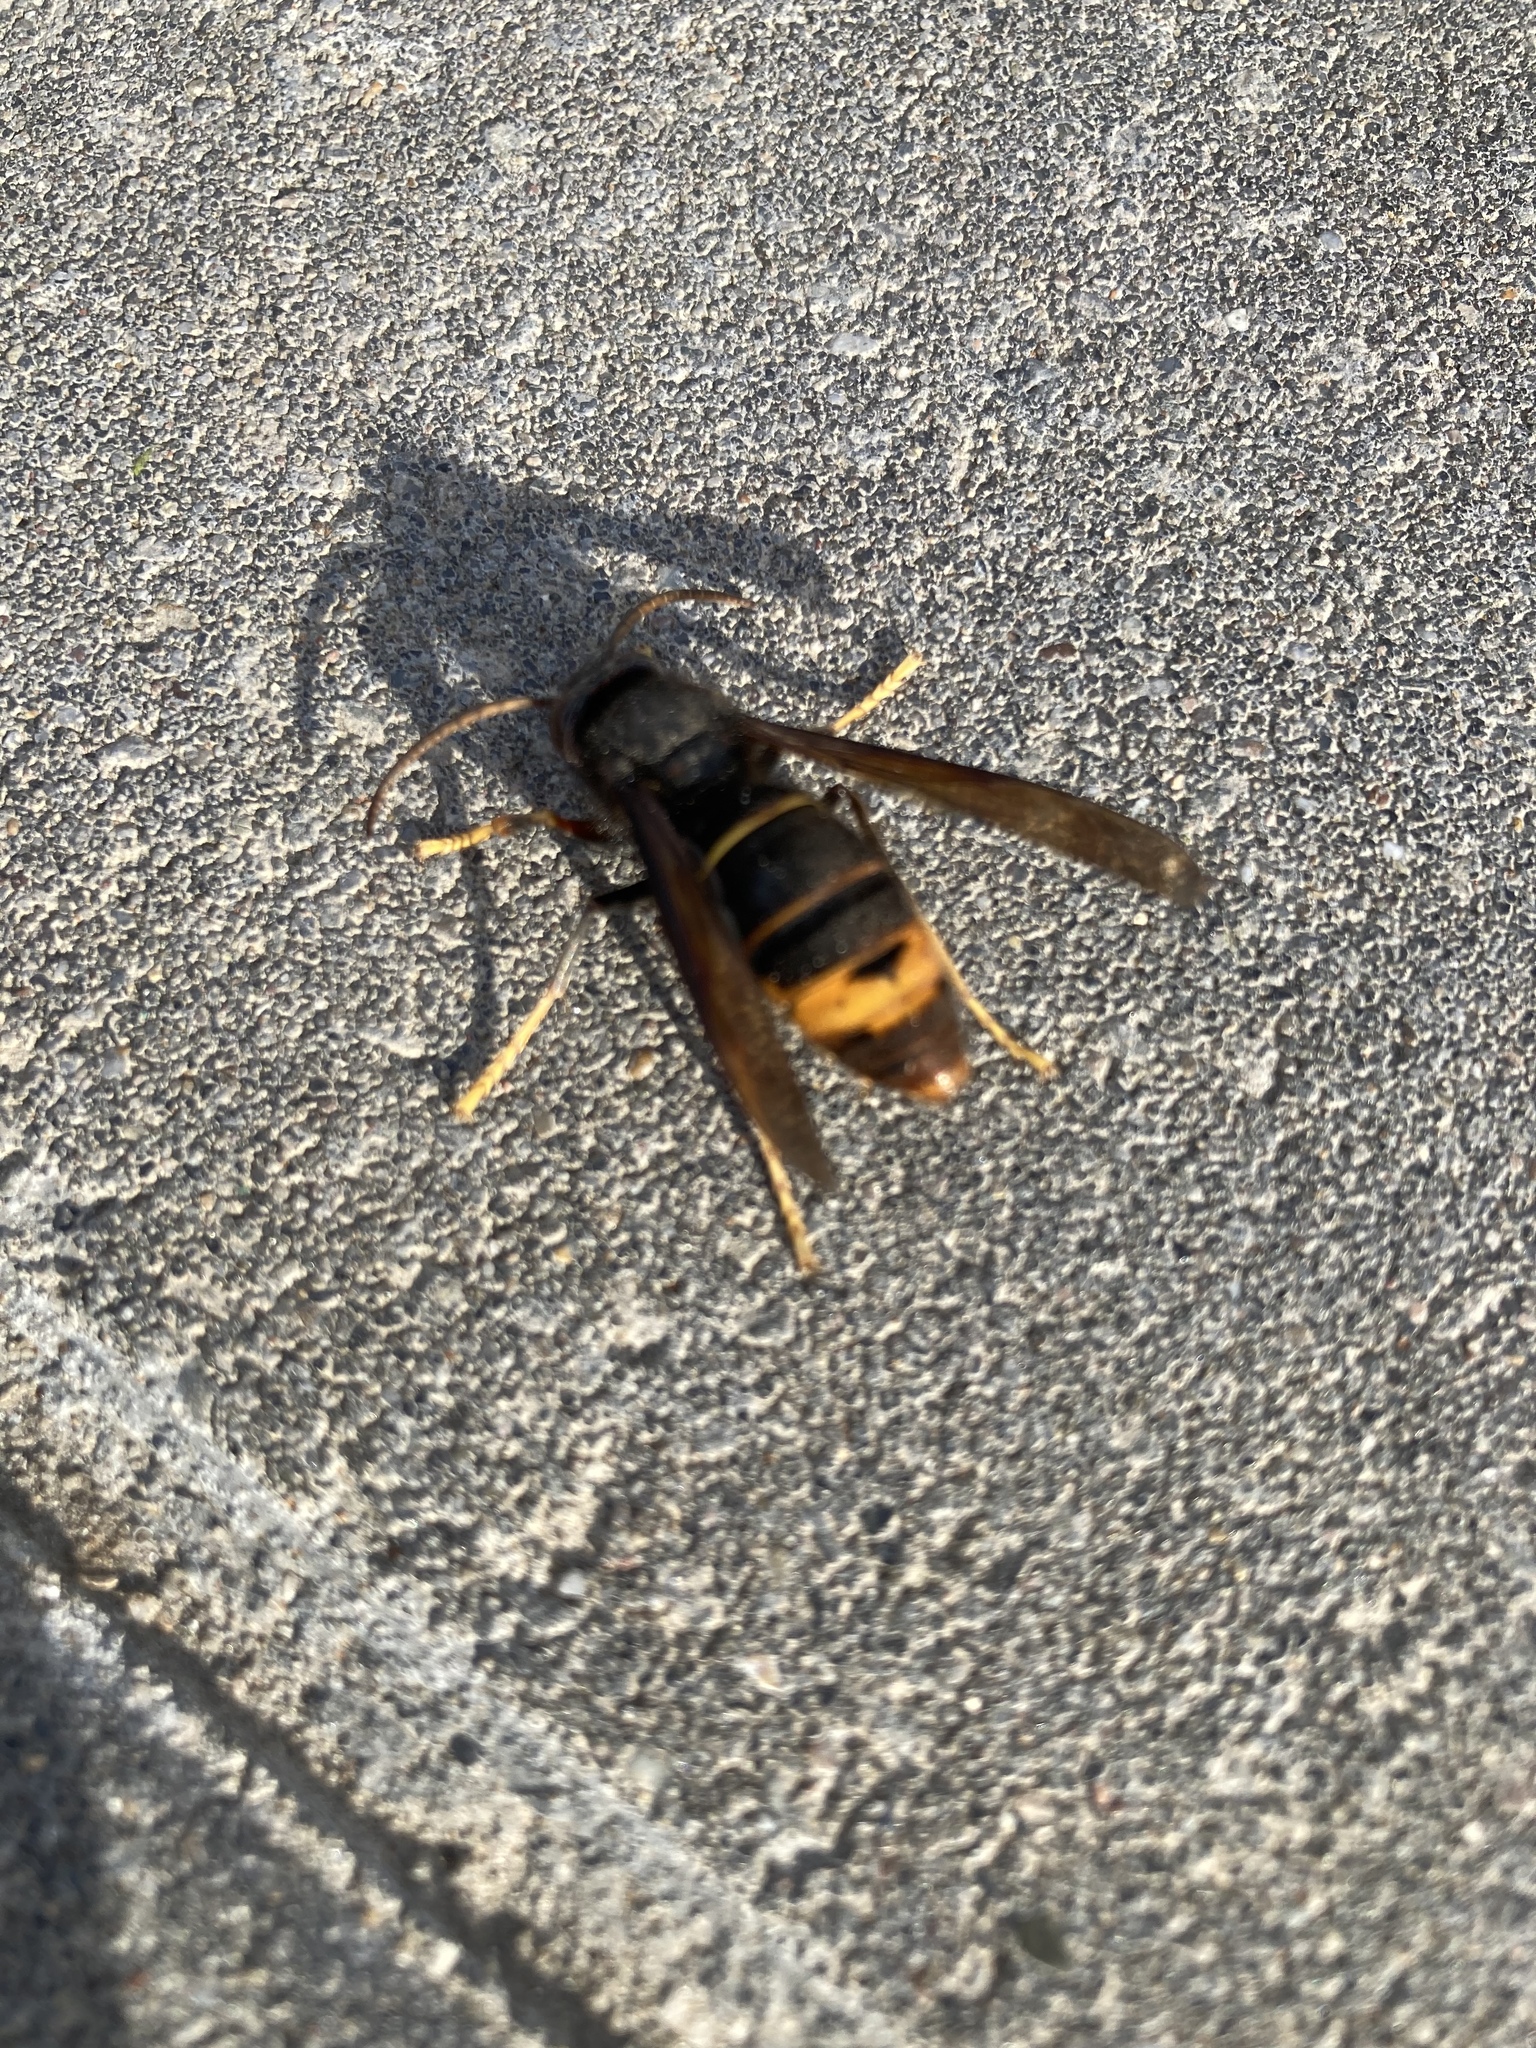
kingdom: Animalia
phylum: Arthropoda
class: Insecta
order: Hymenoptera
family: Vespidae
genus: Vespa
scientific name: Vespa velutina
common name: Asian hornet
